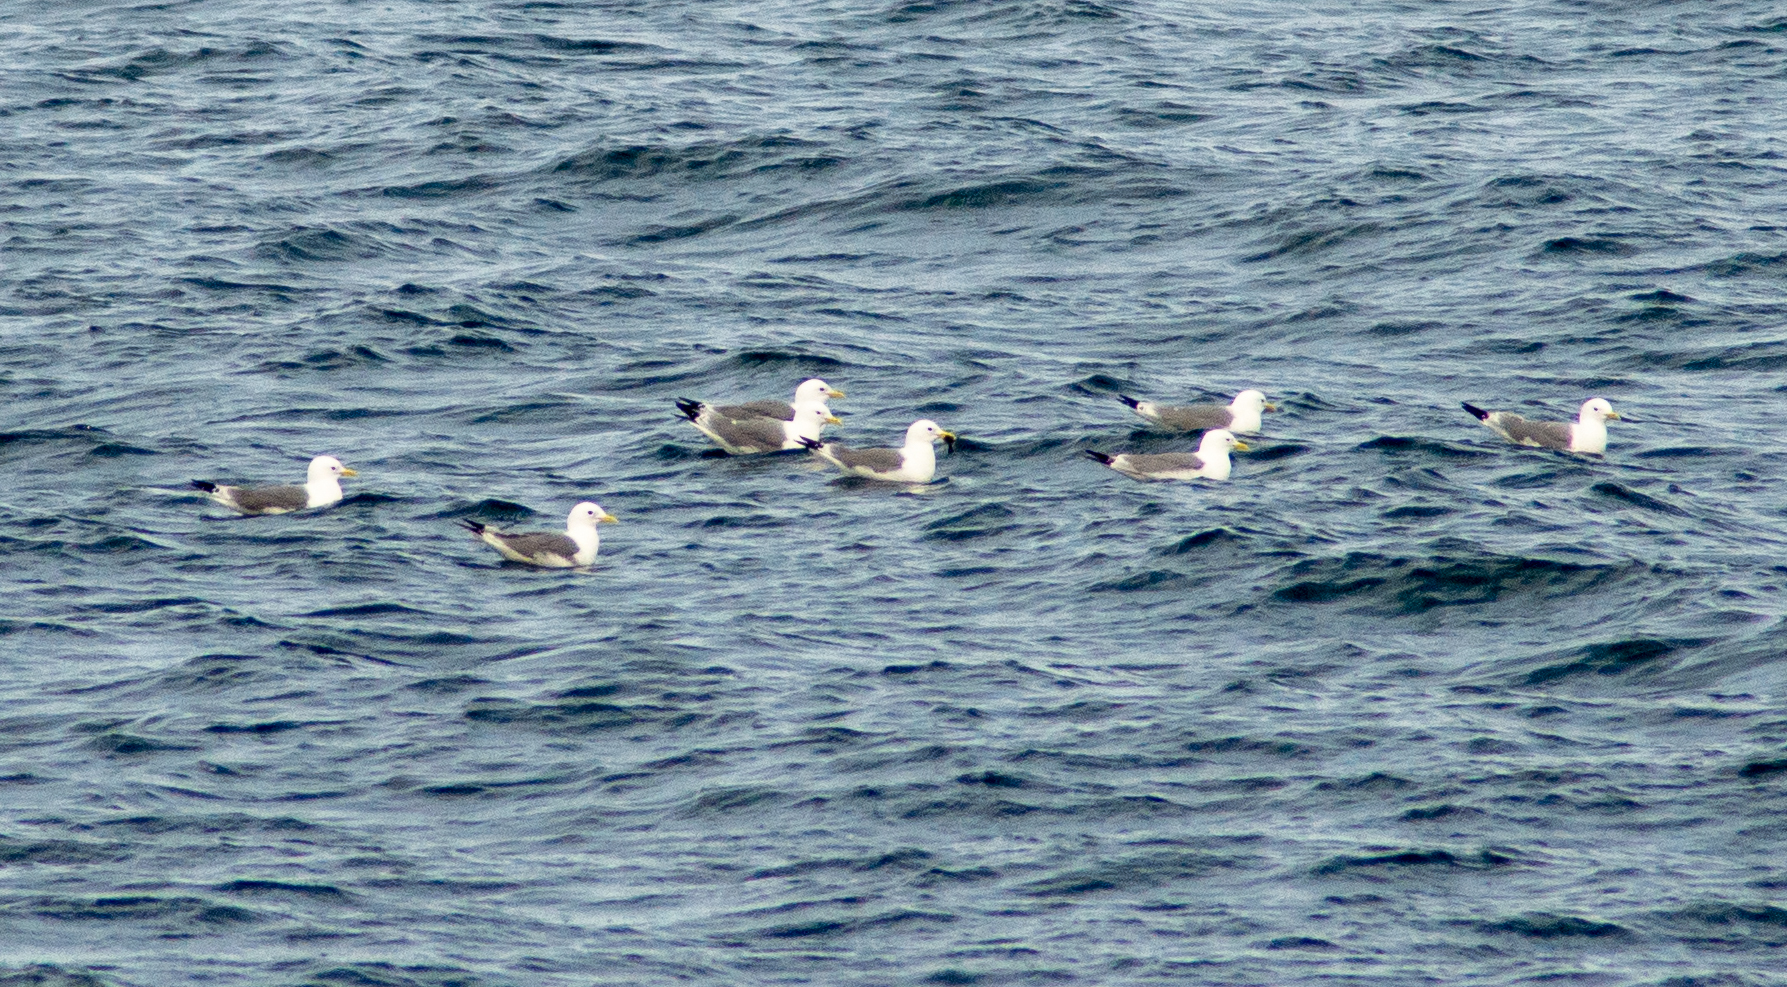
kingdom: Animalia
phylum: Chordata
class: Aves
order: Charadriiformes
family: Laridae
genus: Rissa
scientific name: Rissa tridactyla
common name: Black-legged kittiwake
